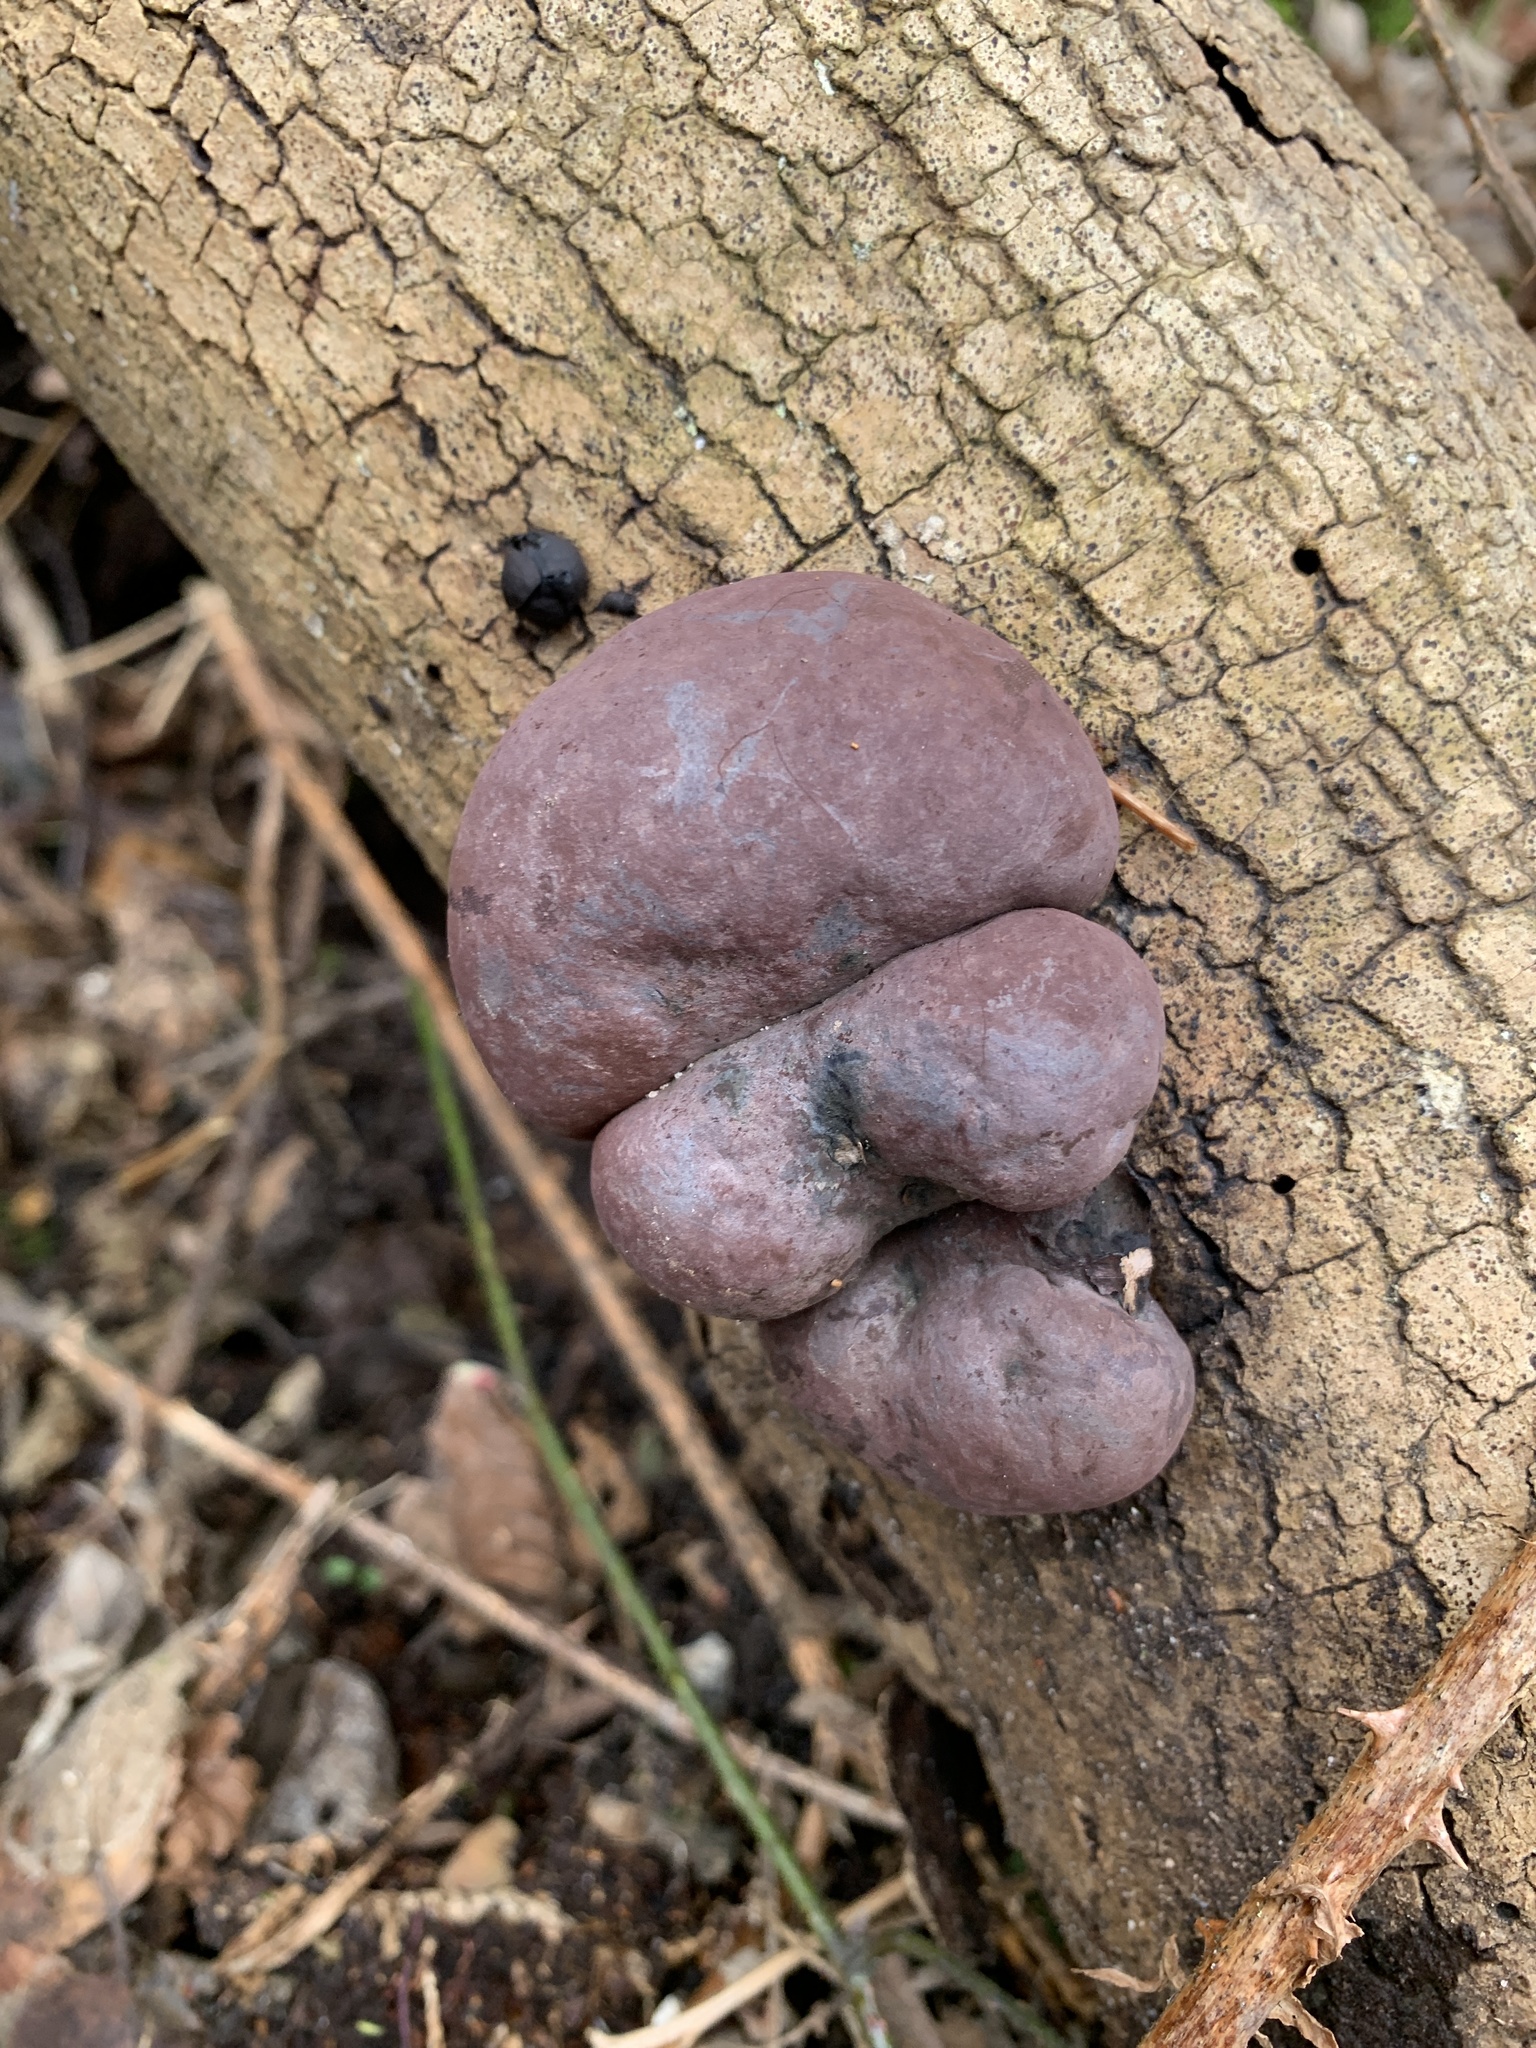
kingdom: Fungi
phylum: Ascomycota
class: Sordariomycetes
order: Xylariales
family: Hypoxylaceae
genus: Daldinia
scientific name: Daldinia concentrica
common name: Cramp balls
